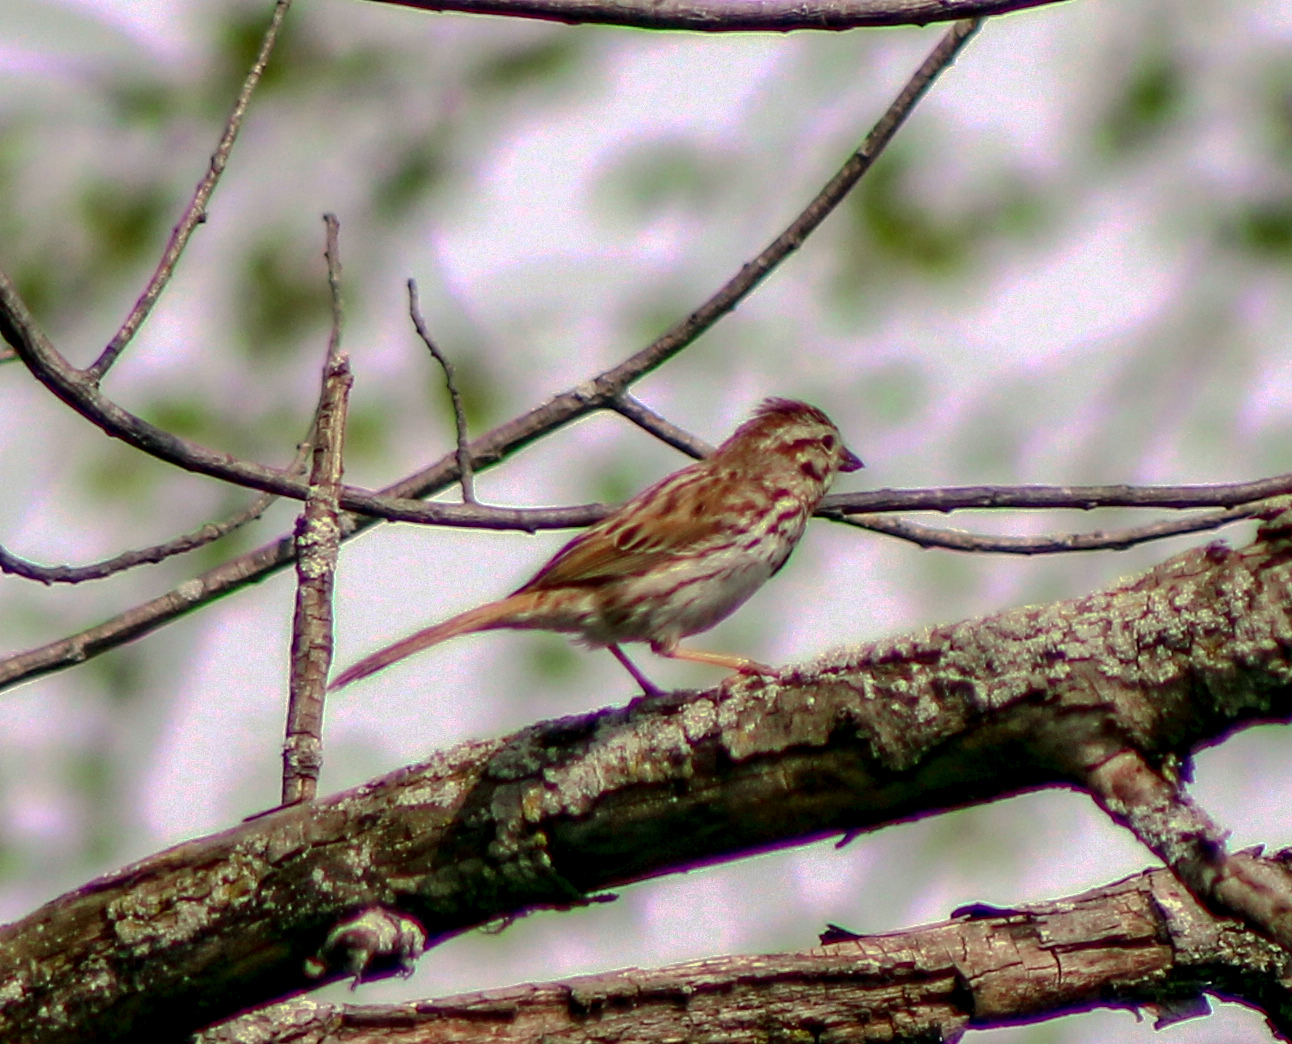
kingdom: Animalia
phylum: Chordata
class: Aves
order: Passeriformes
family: Passerellidae
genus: Melospiza
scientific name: Melospiza melodia
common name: Song sparrow
